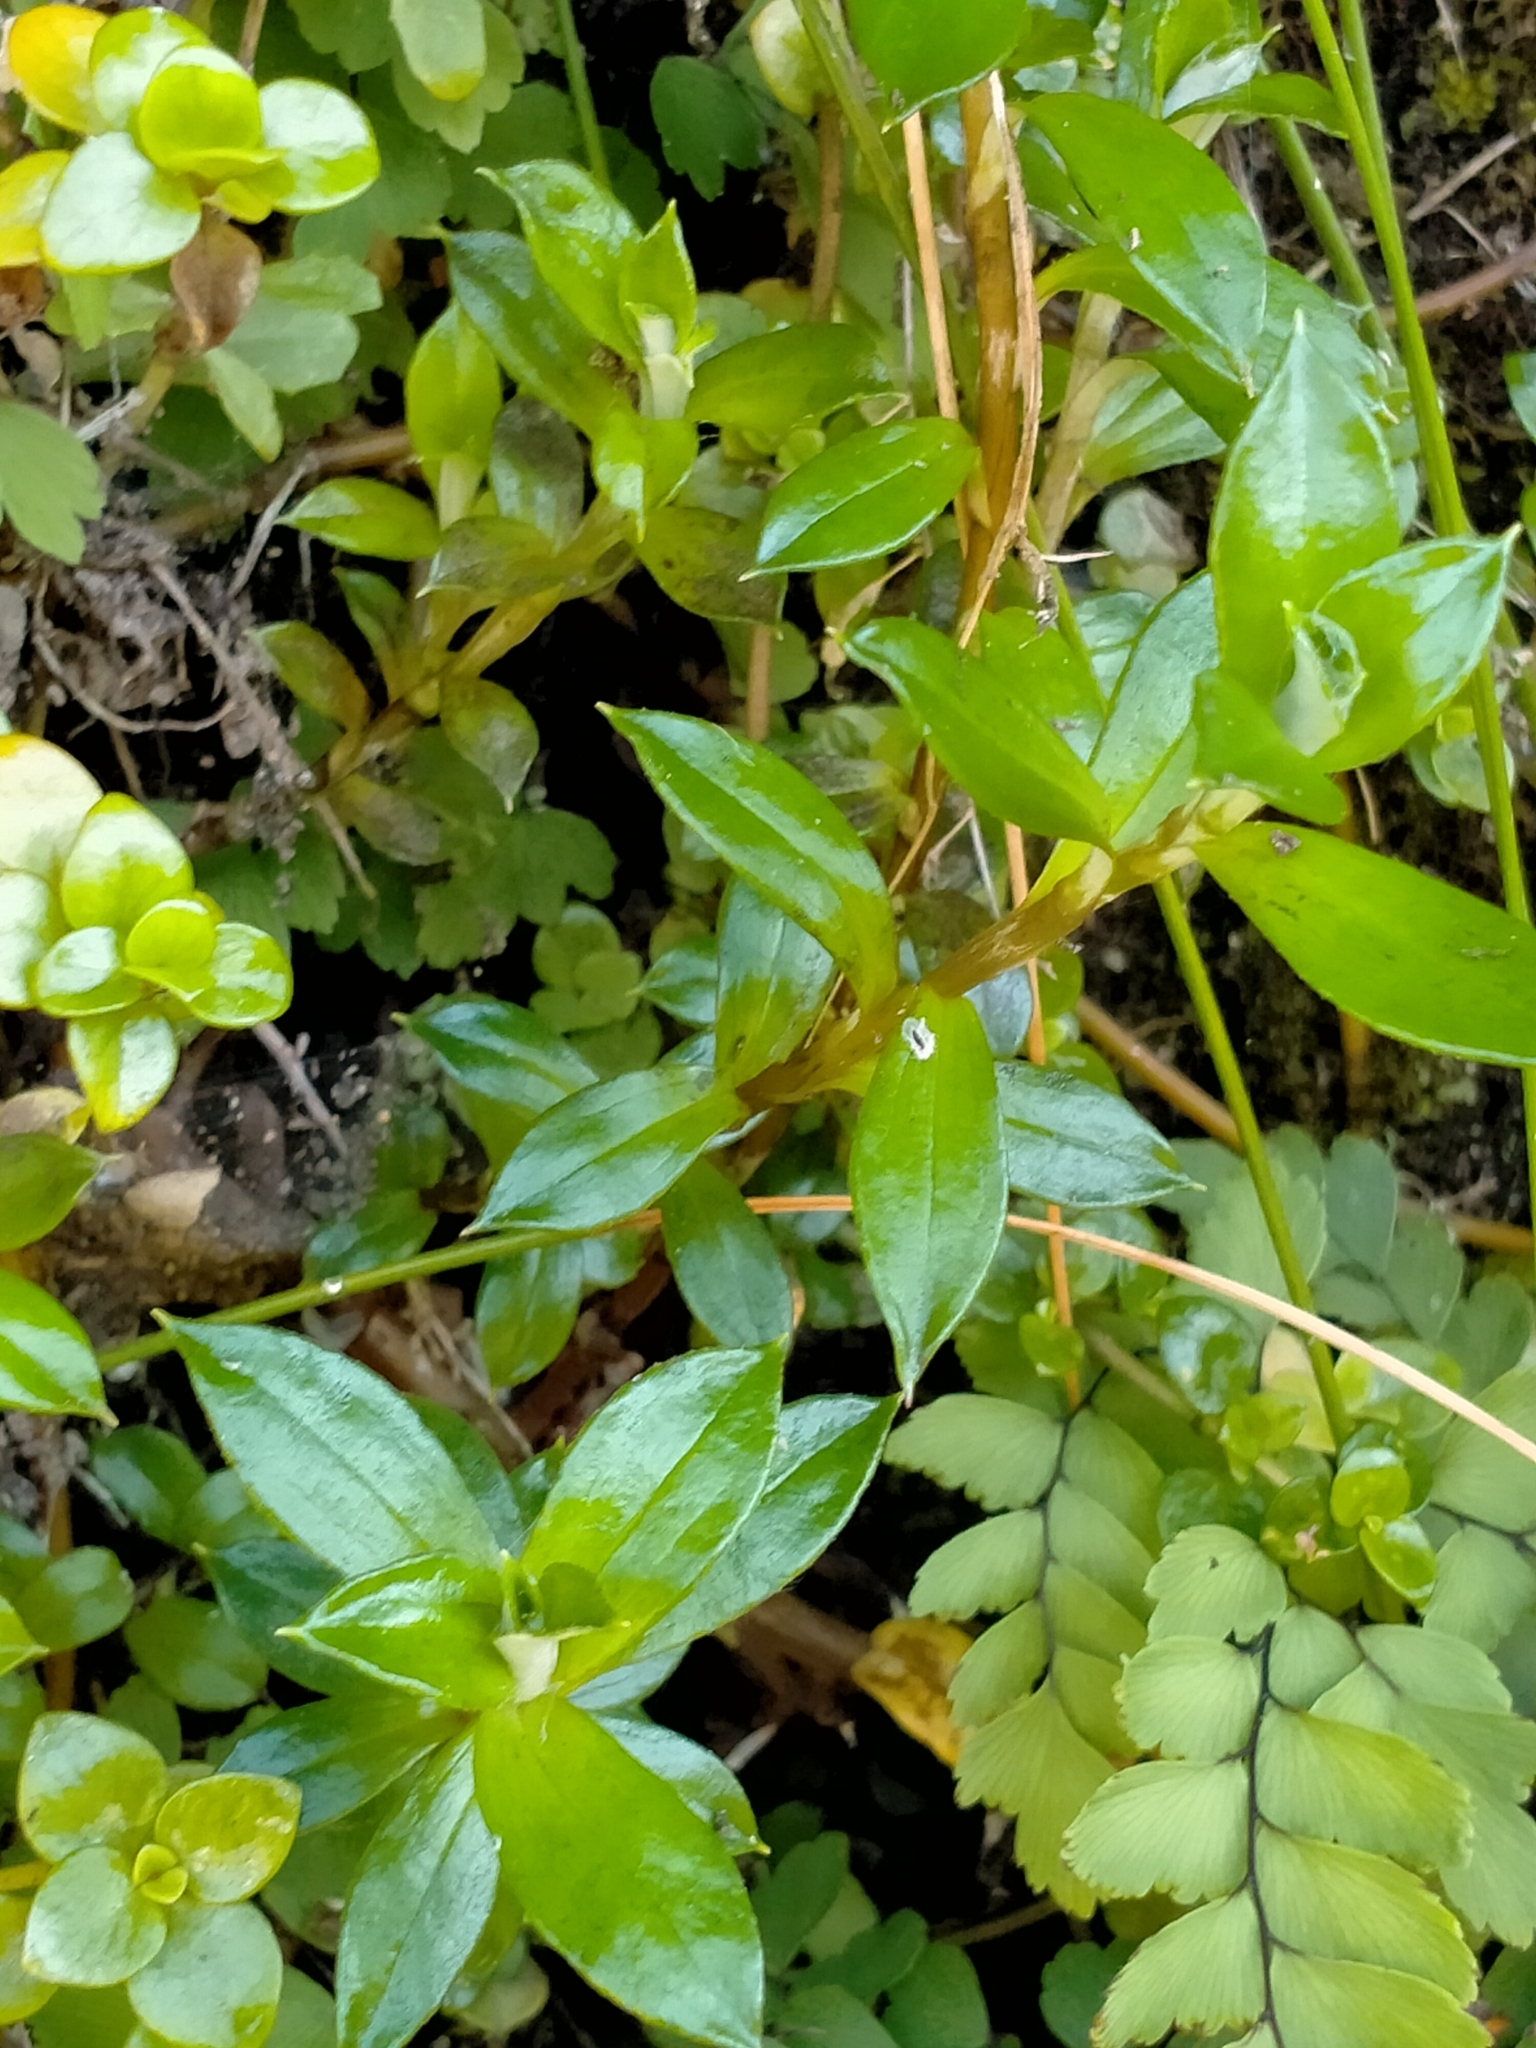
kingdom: Plantae
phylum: Tracheophyta
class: Magnoliopsida
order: Asterales
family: Asteraceae
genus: Anaphalioides
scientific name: Anaphalioides hookeri
